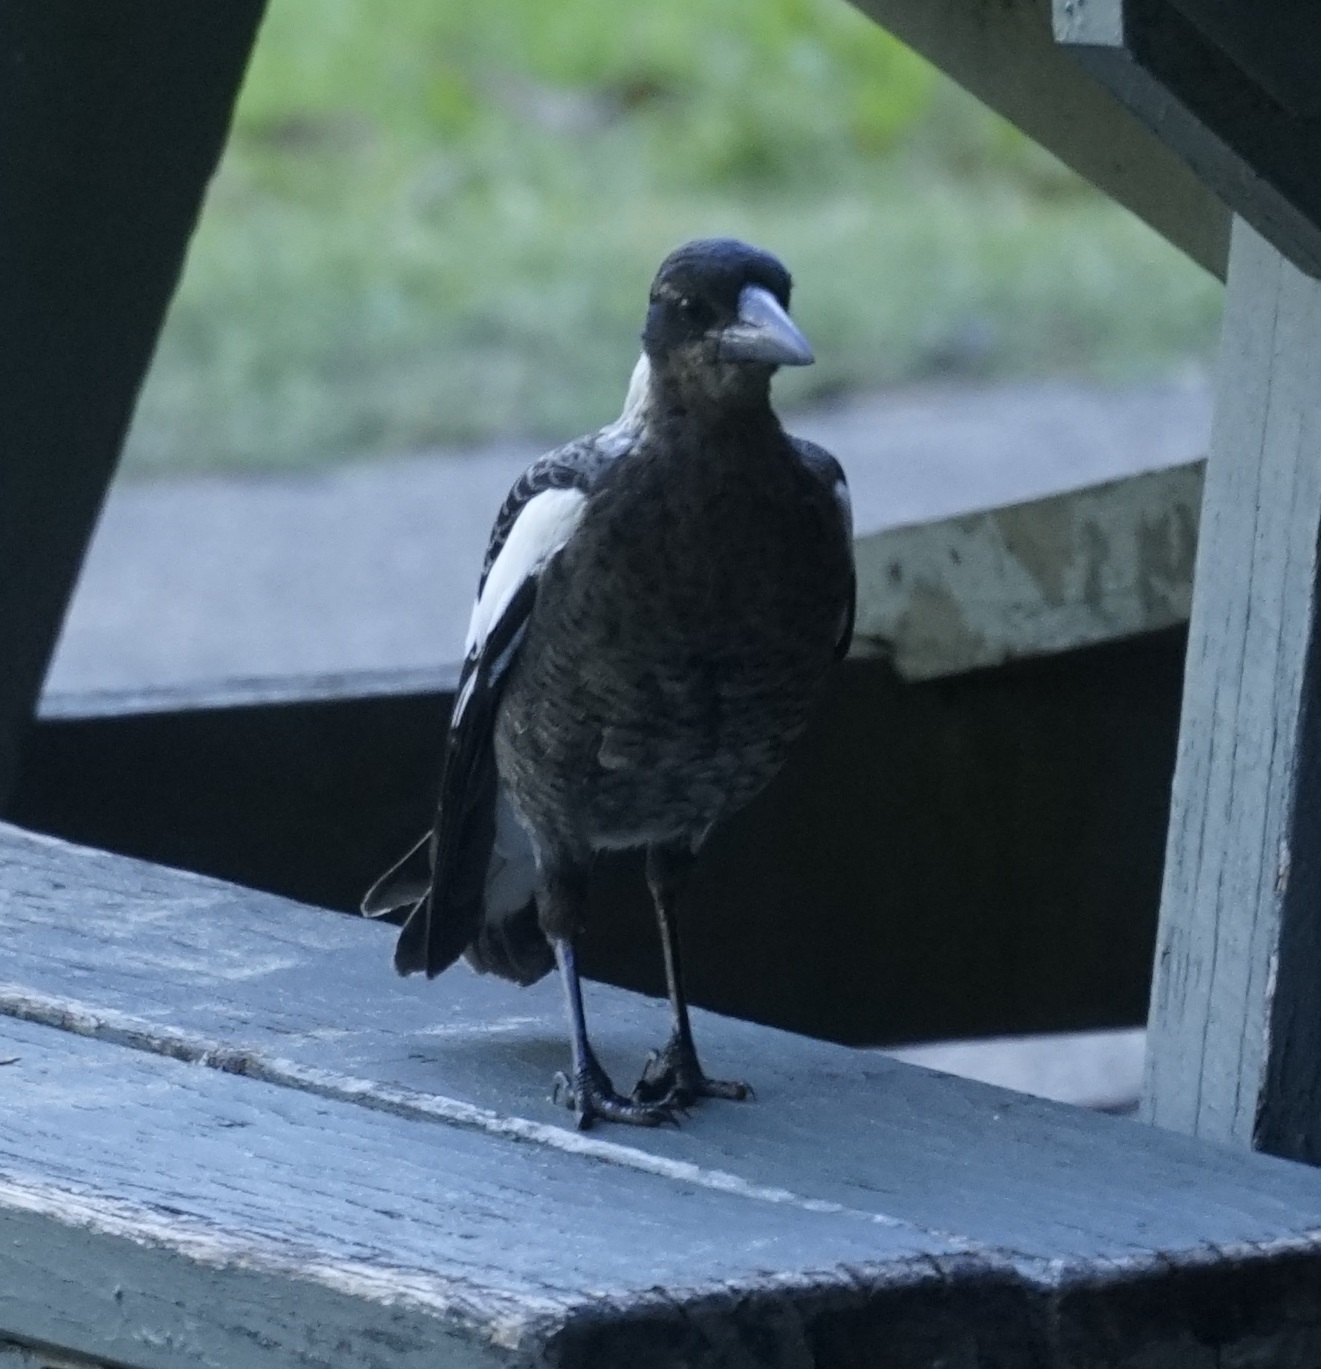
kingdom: Animalia
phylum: Chordata
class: Aves
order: Passeriformes
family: Cracticidae
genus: Gymnorhina
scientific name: Gymnorhina tibicen
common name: Australian magpie
